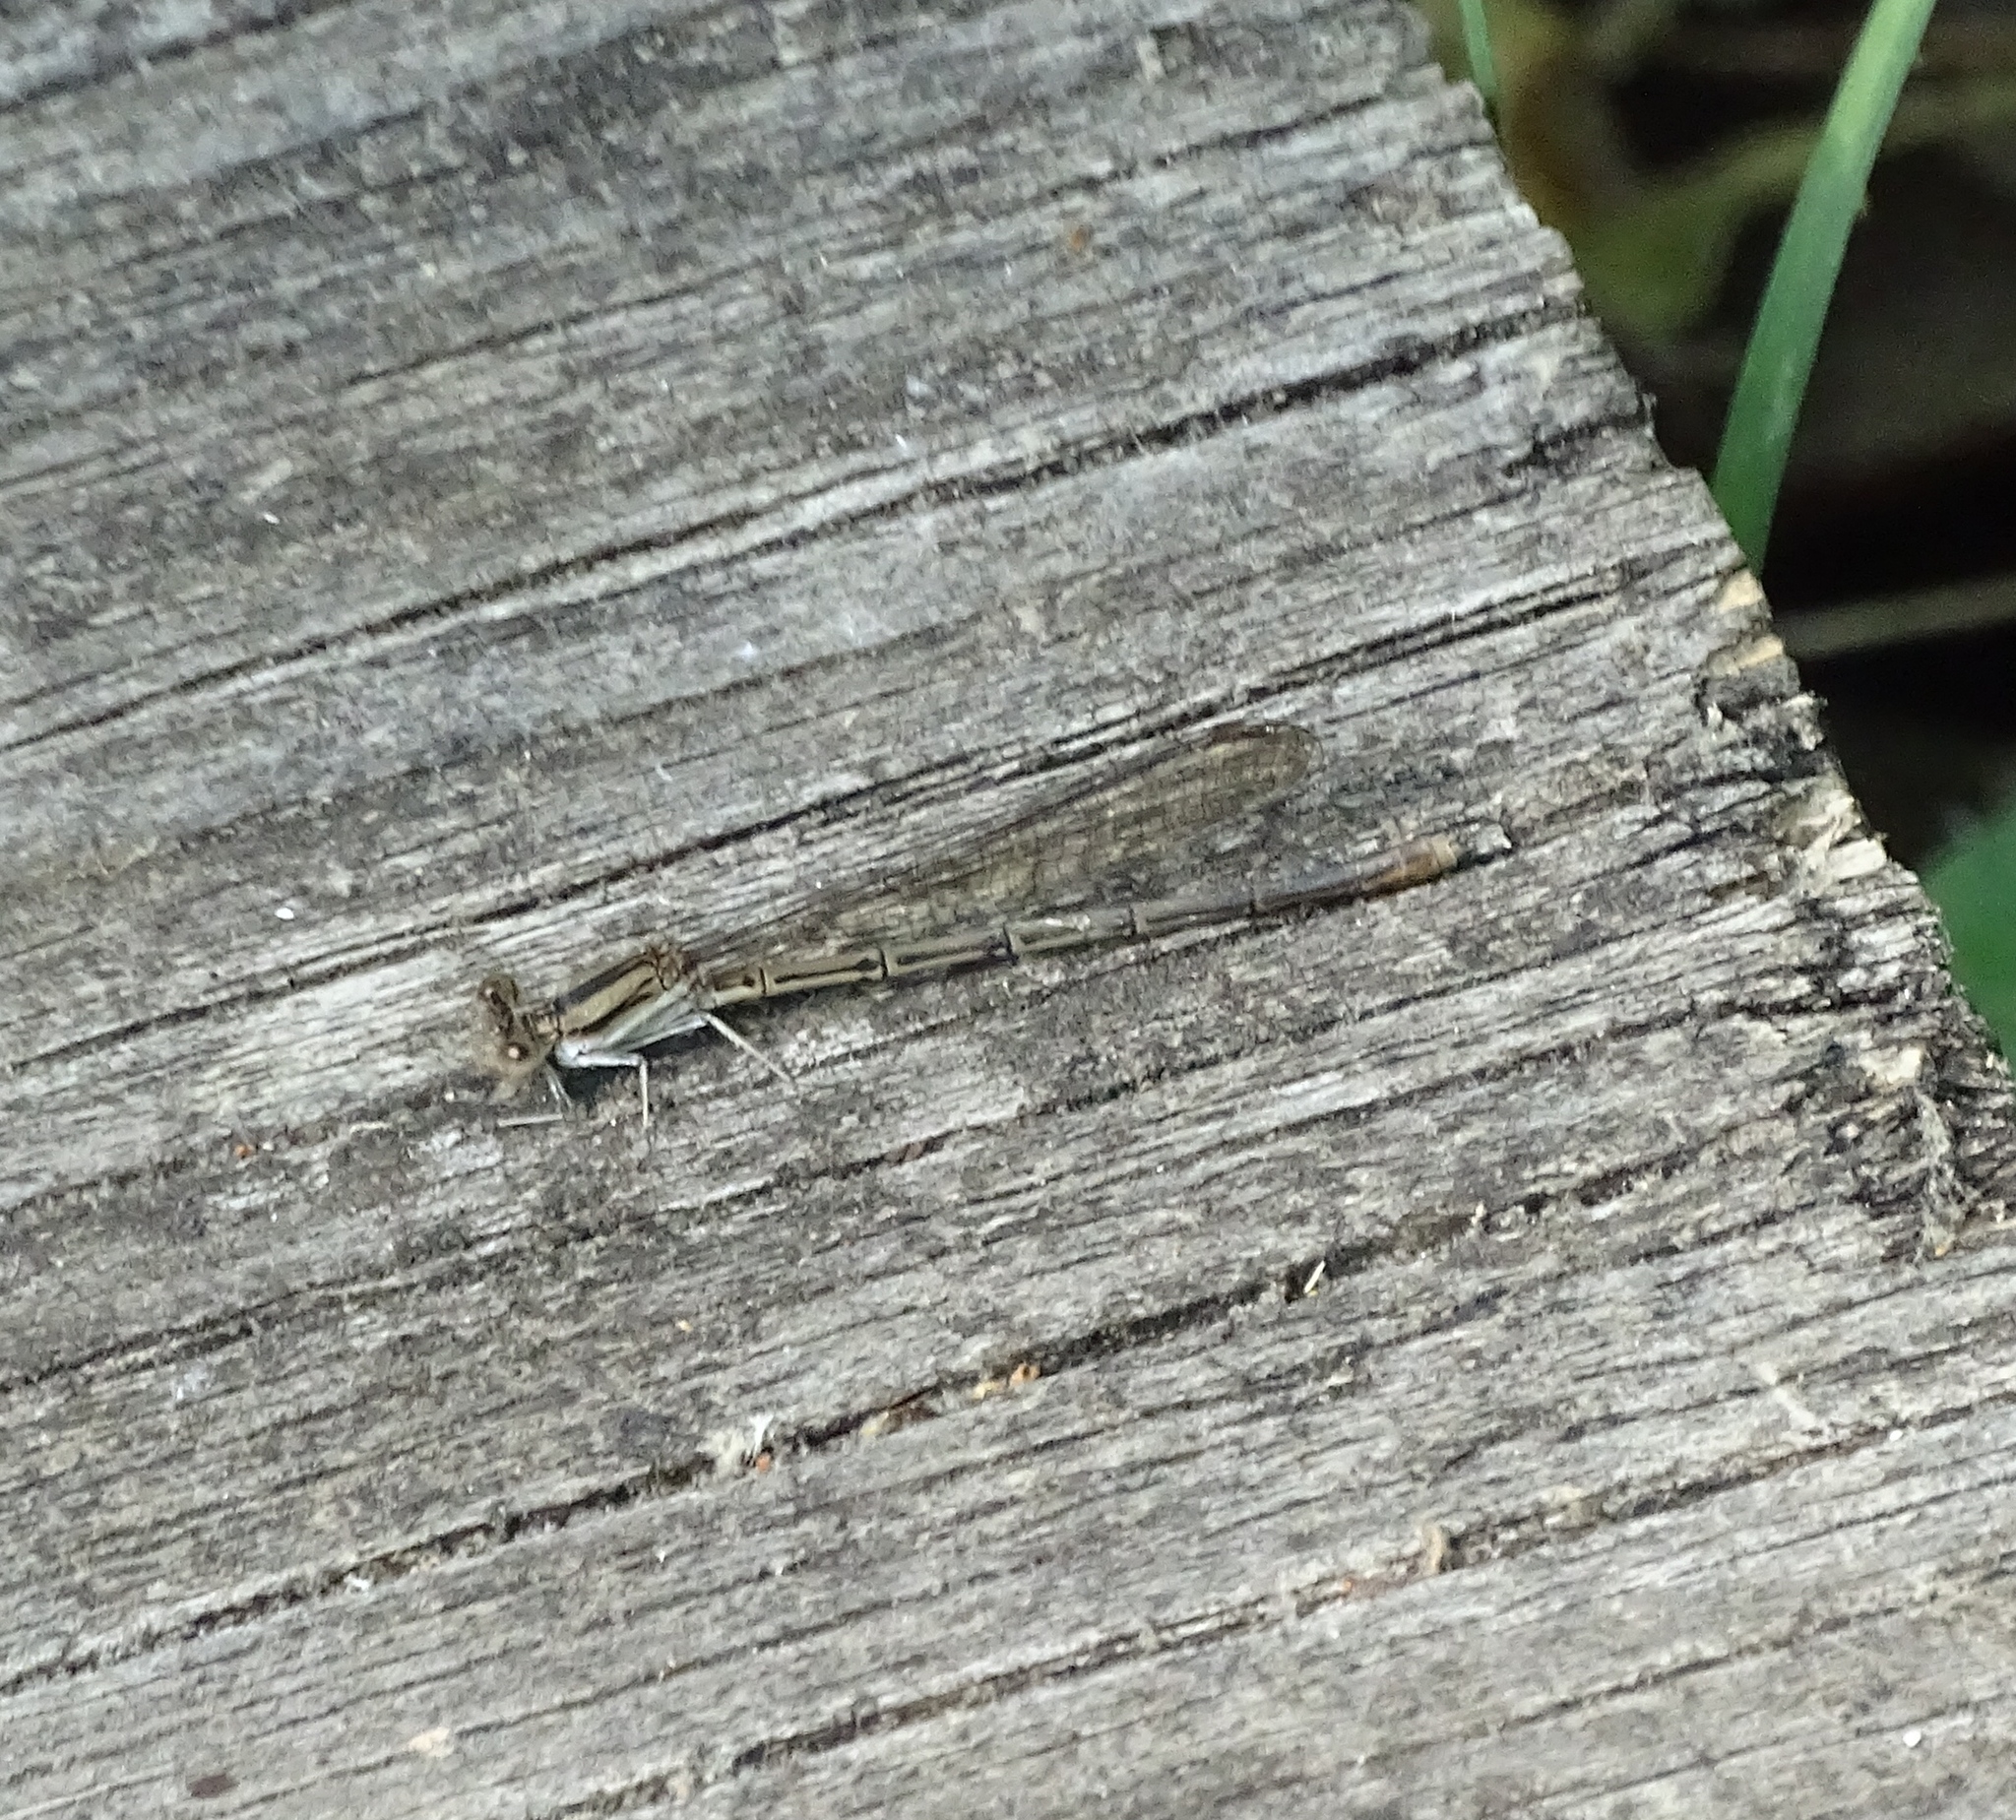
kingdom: Animalia
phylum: Arthropoda
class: Insecta
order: Odonata
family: Coenagrionidae
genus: Argia
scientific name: Argia fumipennis
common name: Variable dancer
